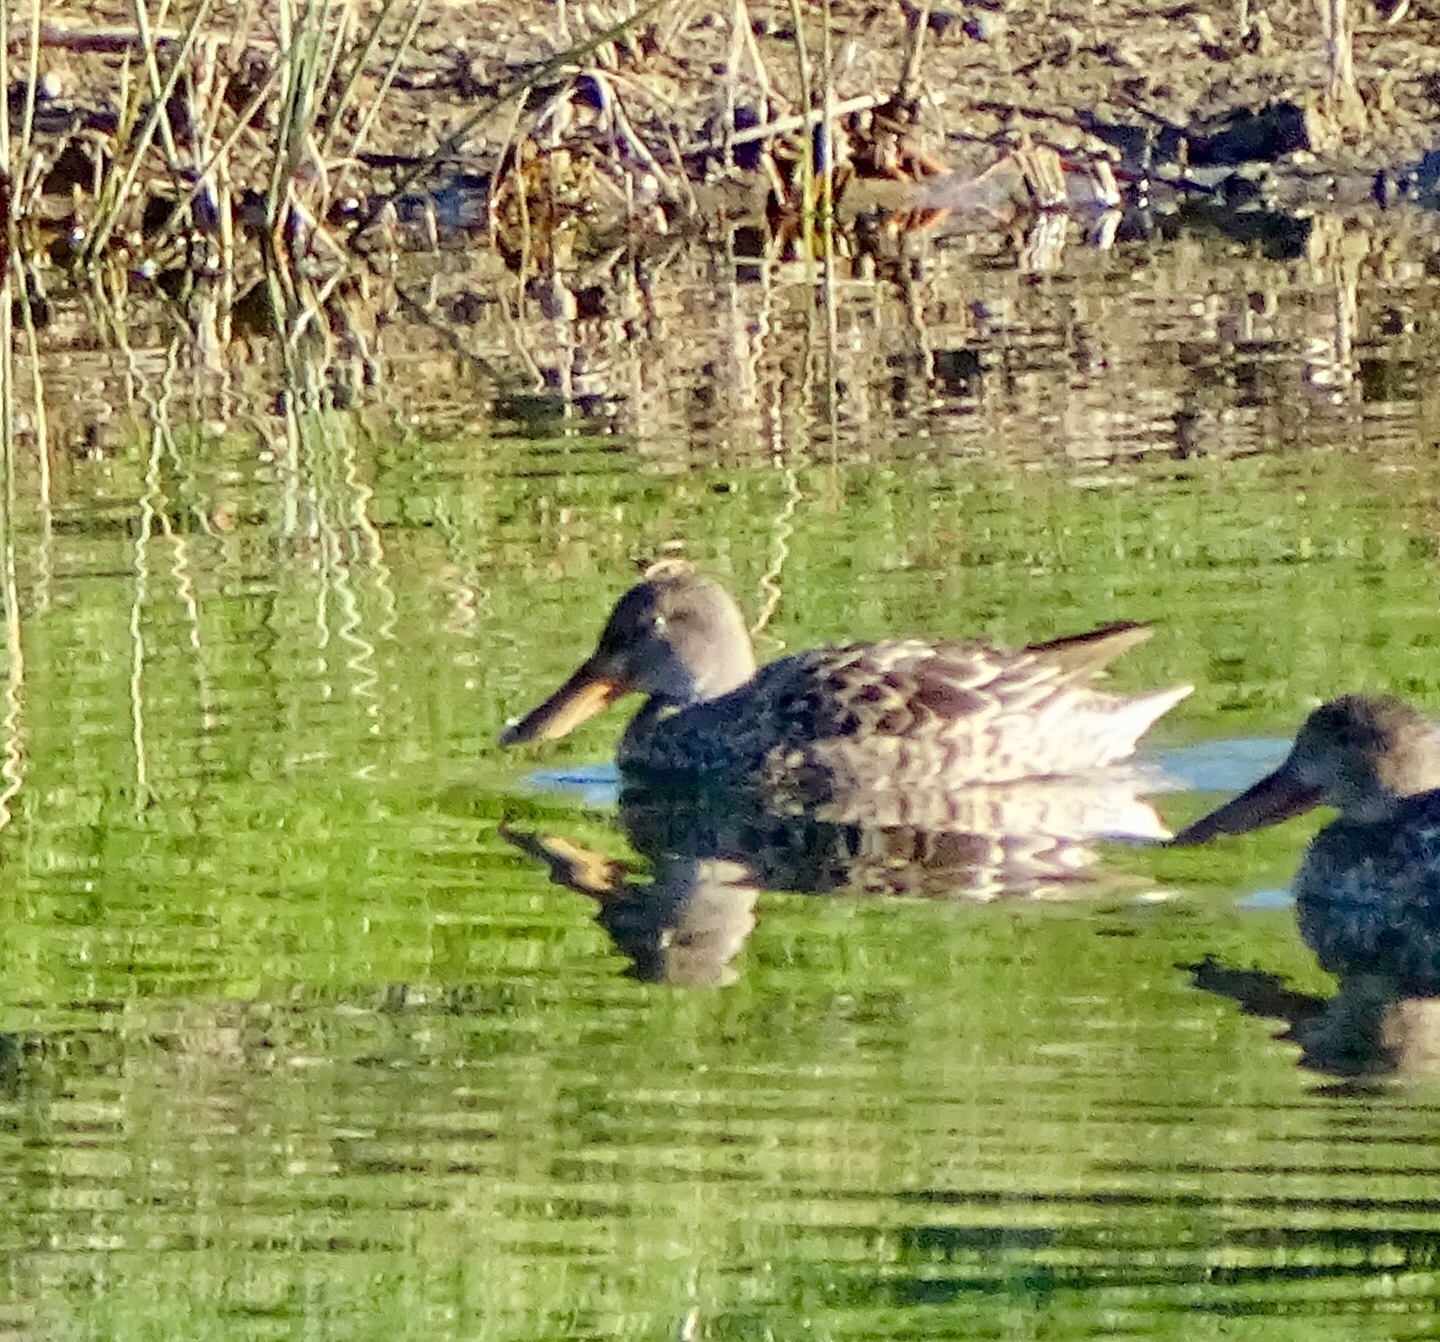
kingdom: Animalia
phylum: Chordata
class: Aves
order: Anseriformes
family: Anatidae
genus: Spatula
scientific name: Spatula clypeata
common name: Northern shoveler
